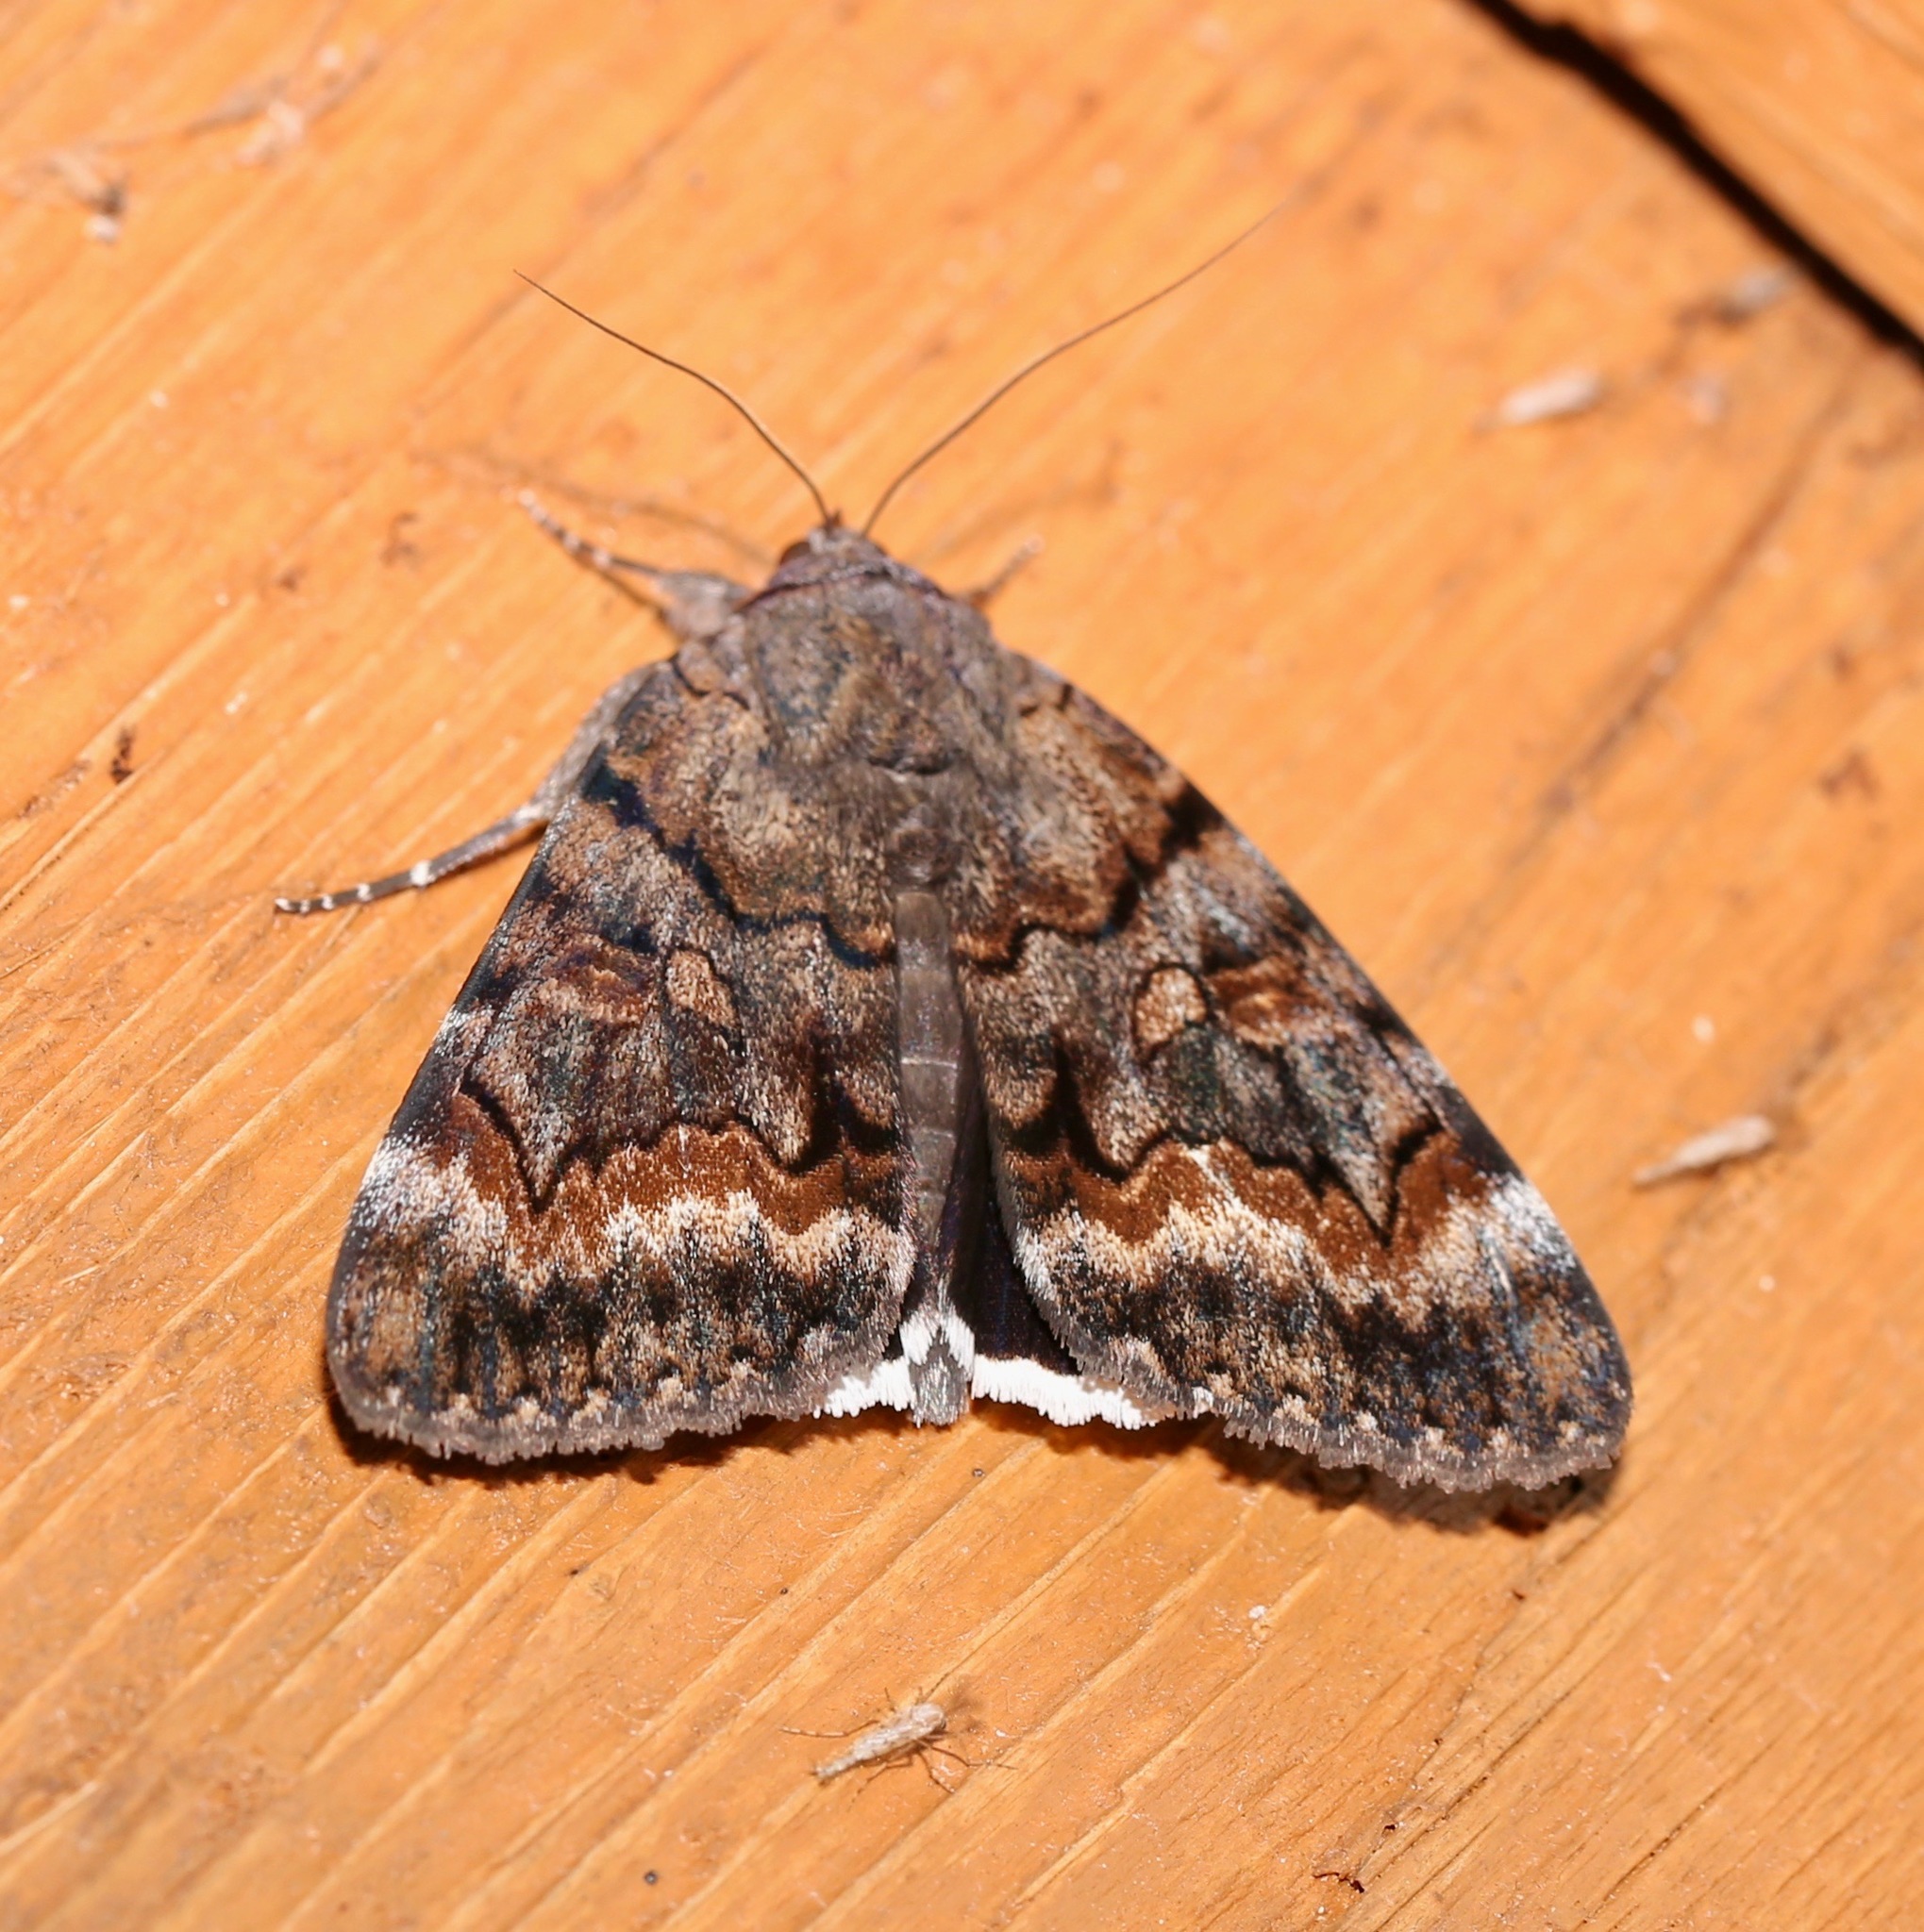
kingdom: Animalia
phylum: Arthropoda
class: Insecta
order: Lepidoptera
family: Erebidae
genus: Catocala
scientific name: Catocala epione
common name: Epione underwing
